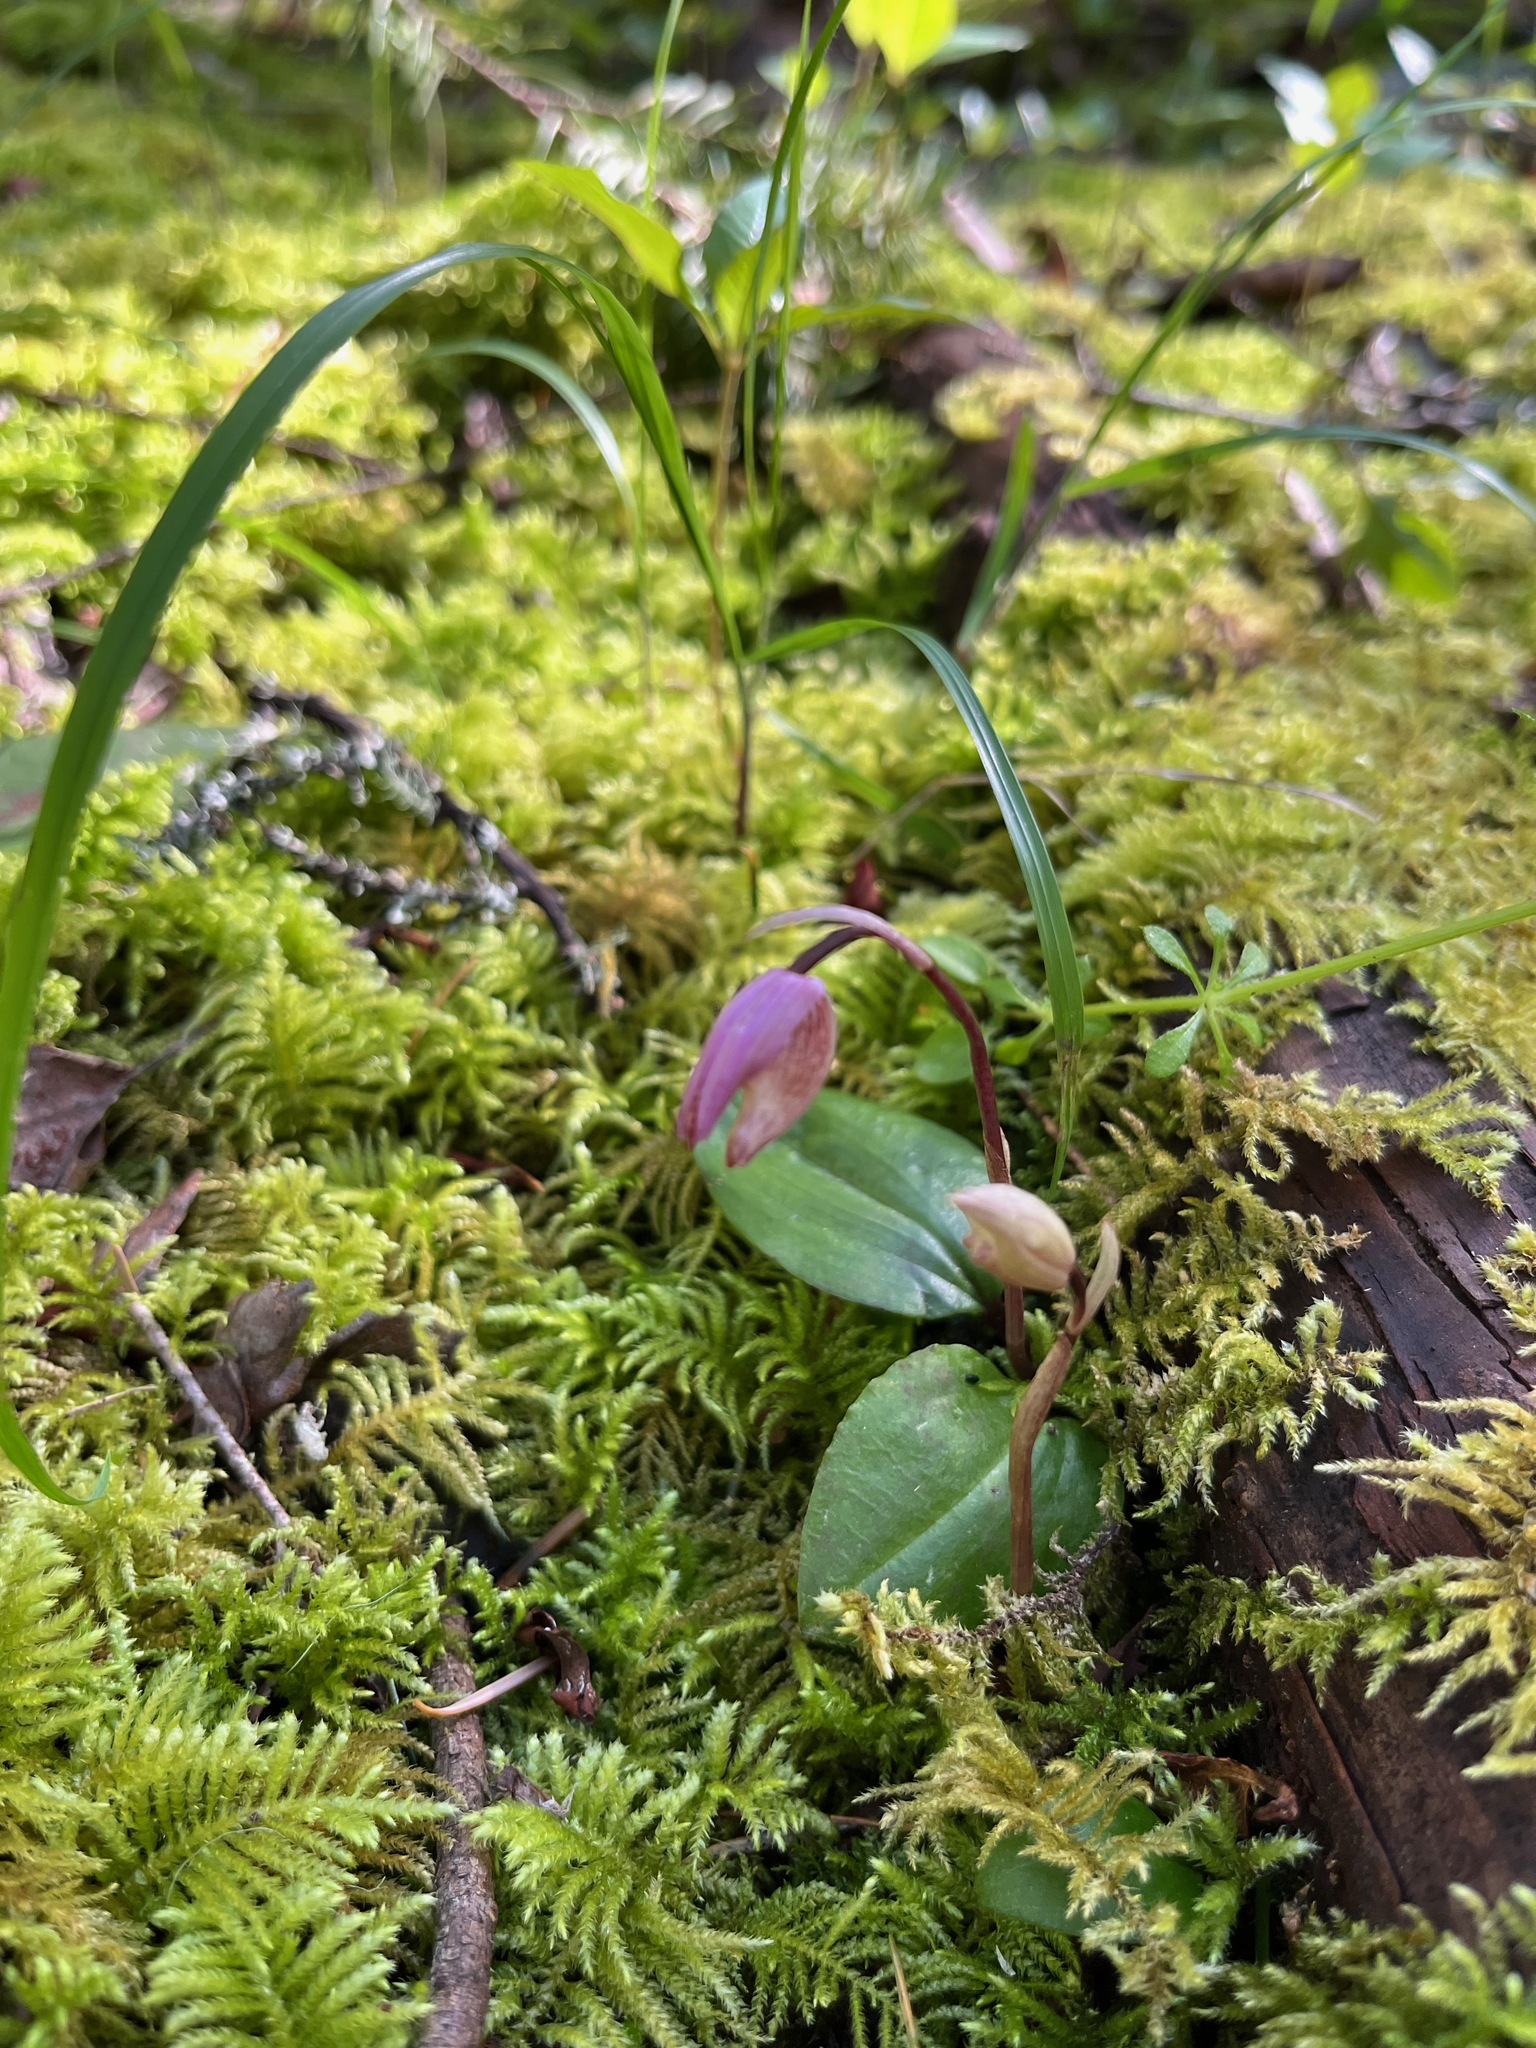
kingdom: Plantae
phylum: Tracheophyta
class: Liliopsida
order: Asparagales
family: Orchidaceae
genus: Calypso
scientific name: Calypso bulbosa
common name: Calypso
